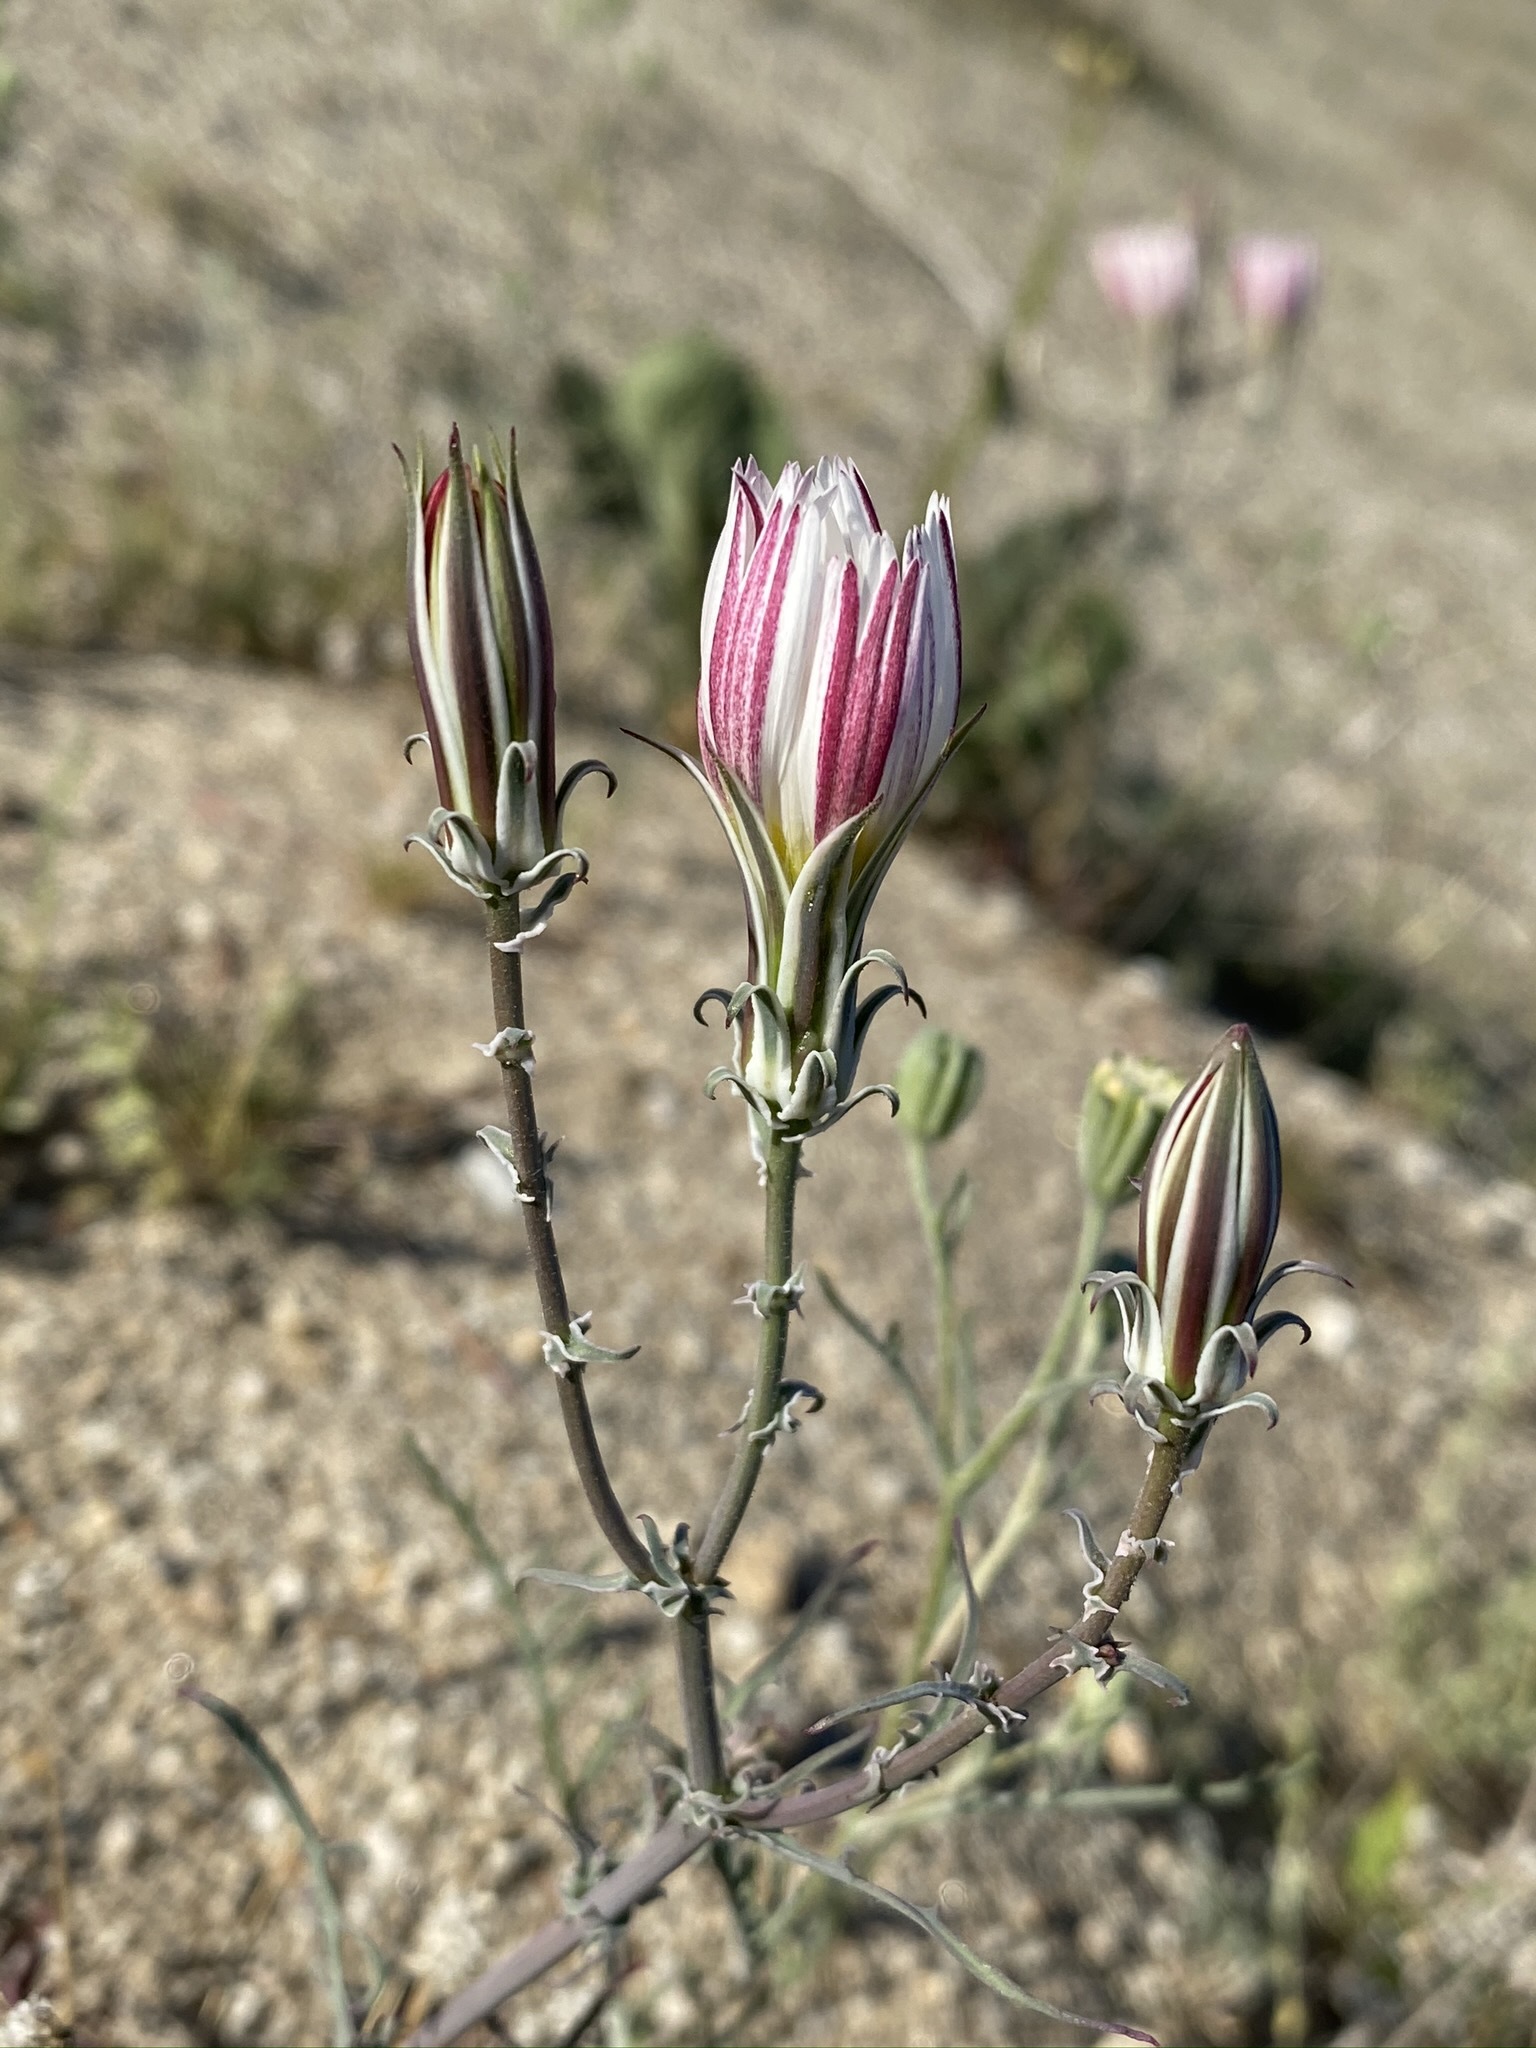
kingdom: Plantae
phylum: Tracheophyta
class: Magnoliopsida
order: Asterales
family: Asteraceae
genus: Rafinesquia
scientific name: Rafinesquia neomexicana
